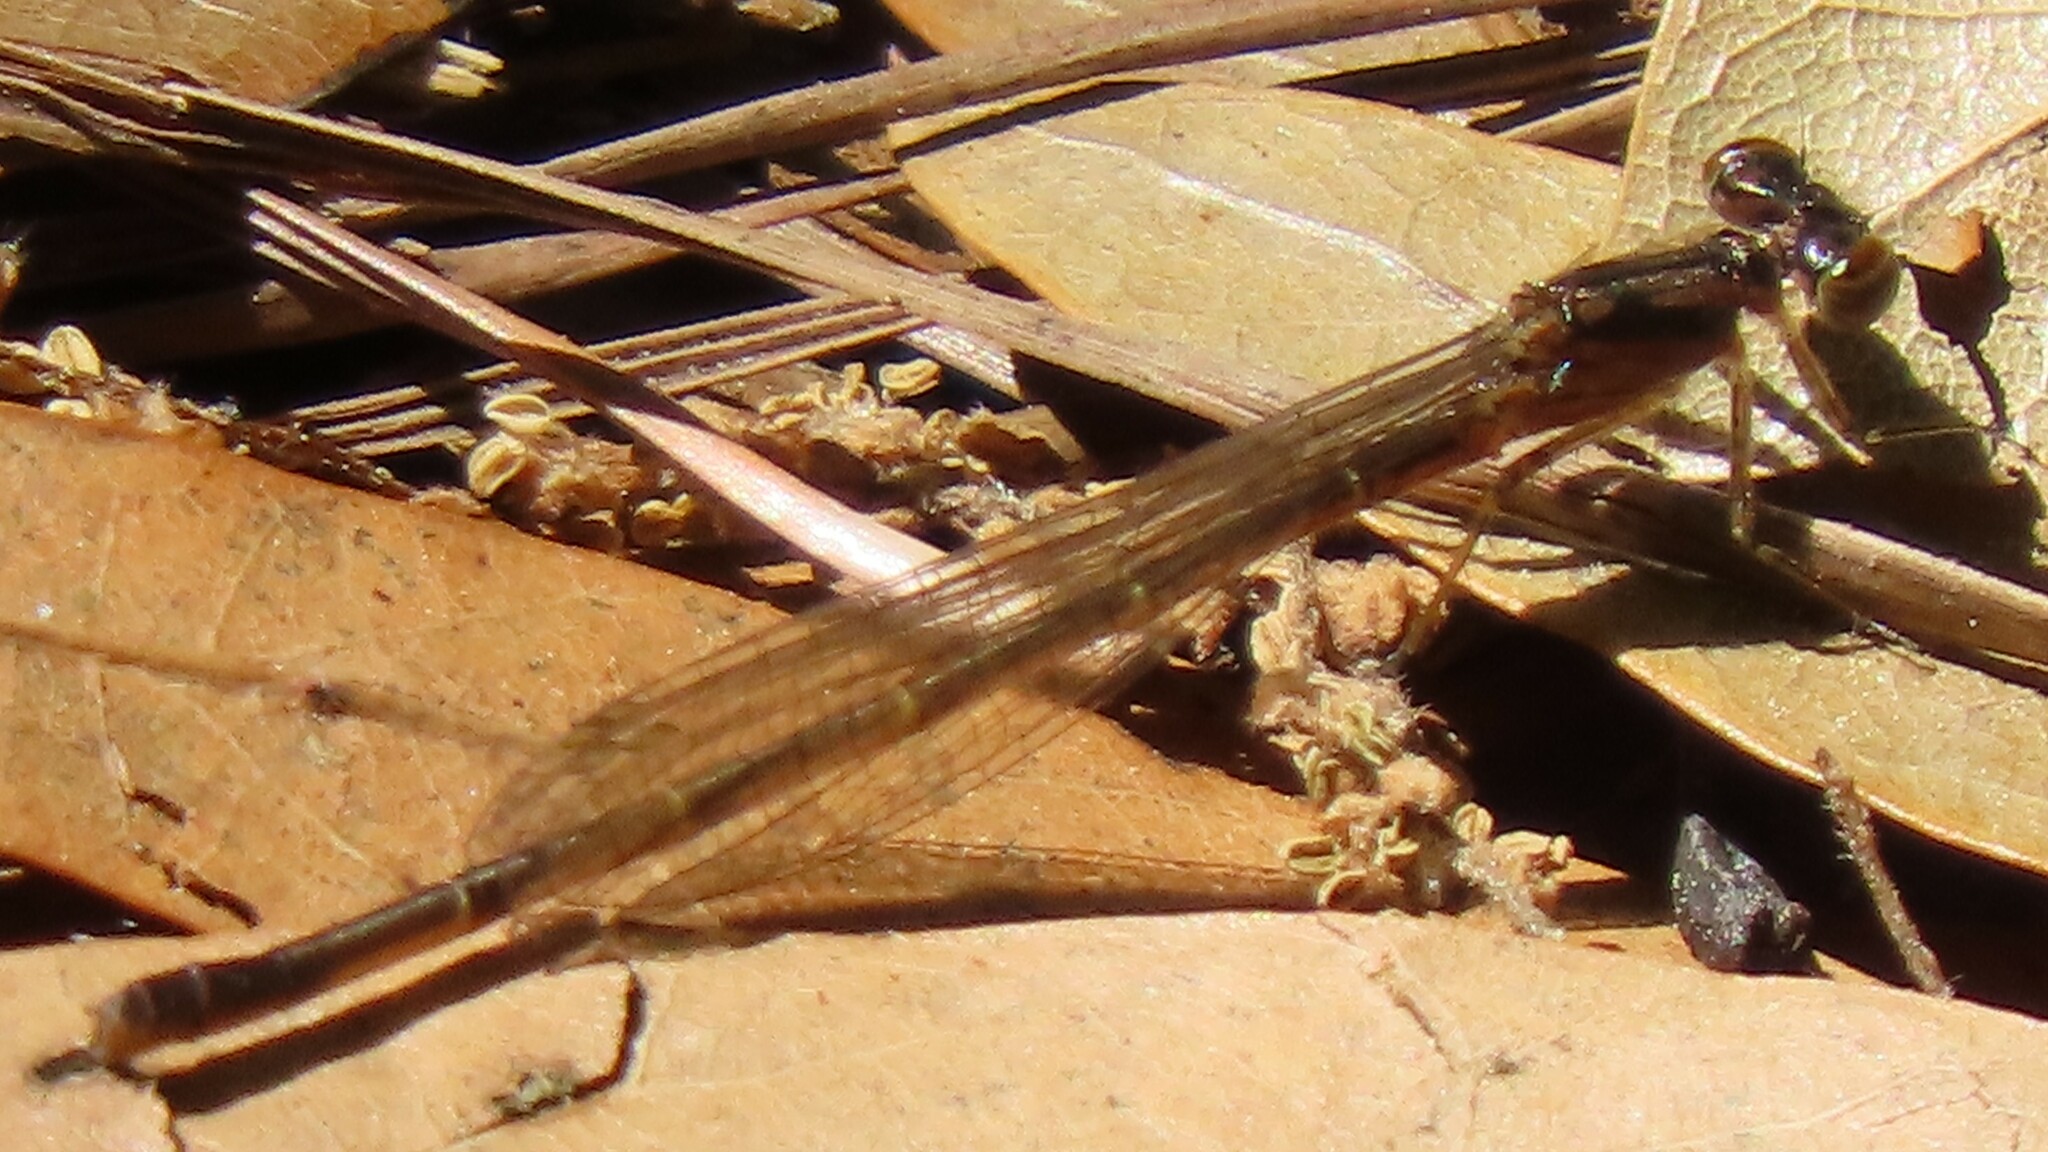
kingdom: Animalia
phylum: Arthropoda
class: Insecta
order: Odonata
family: Coenagrionidae
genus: Ischnura
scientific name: Ischnura posita
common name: Fragile forktail
